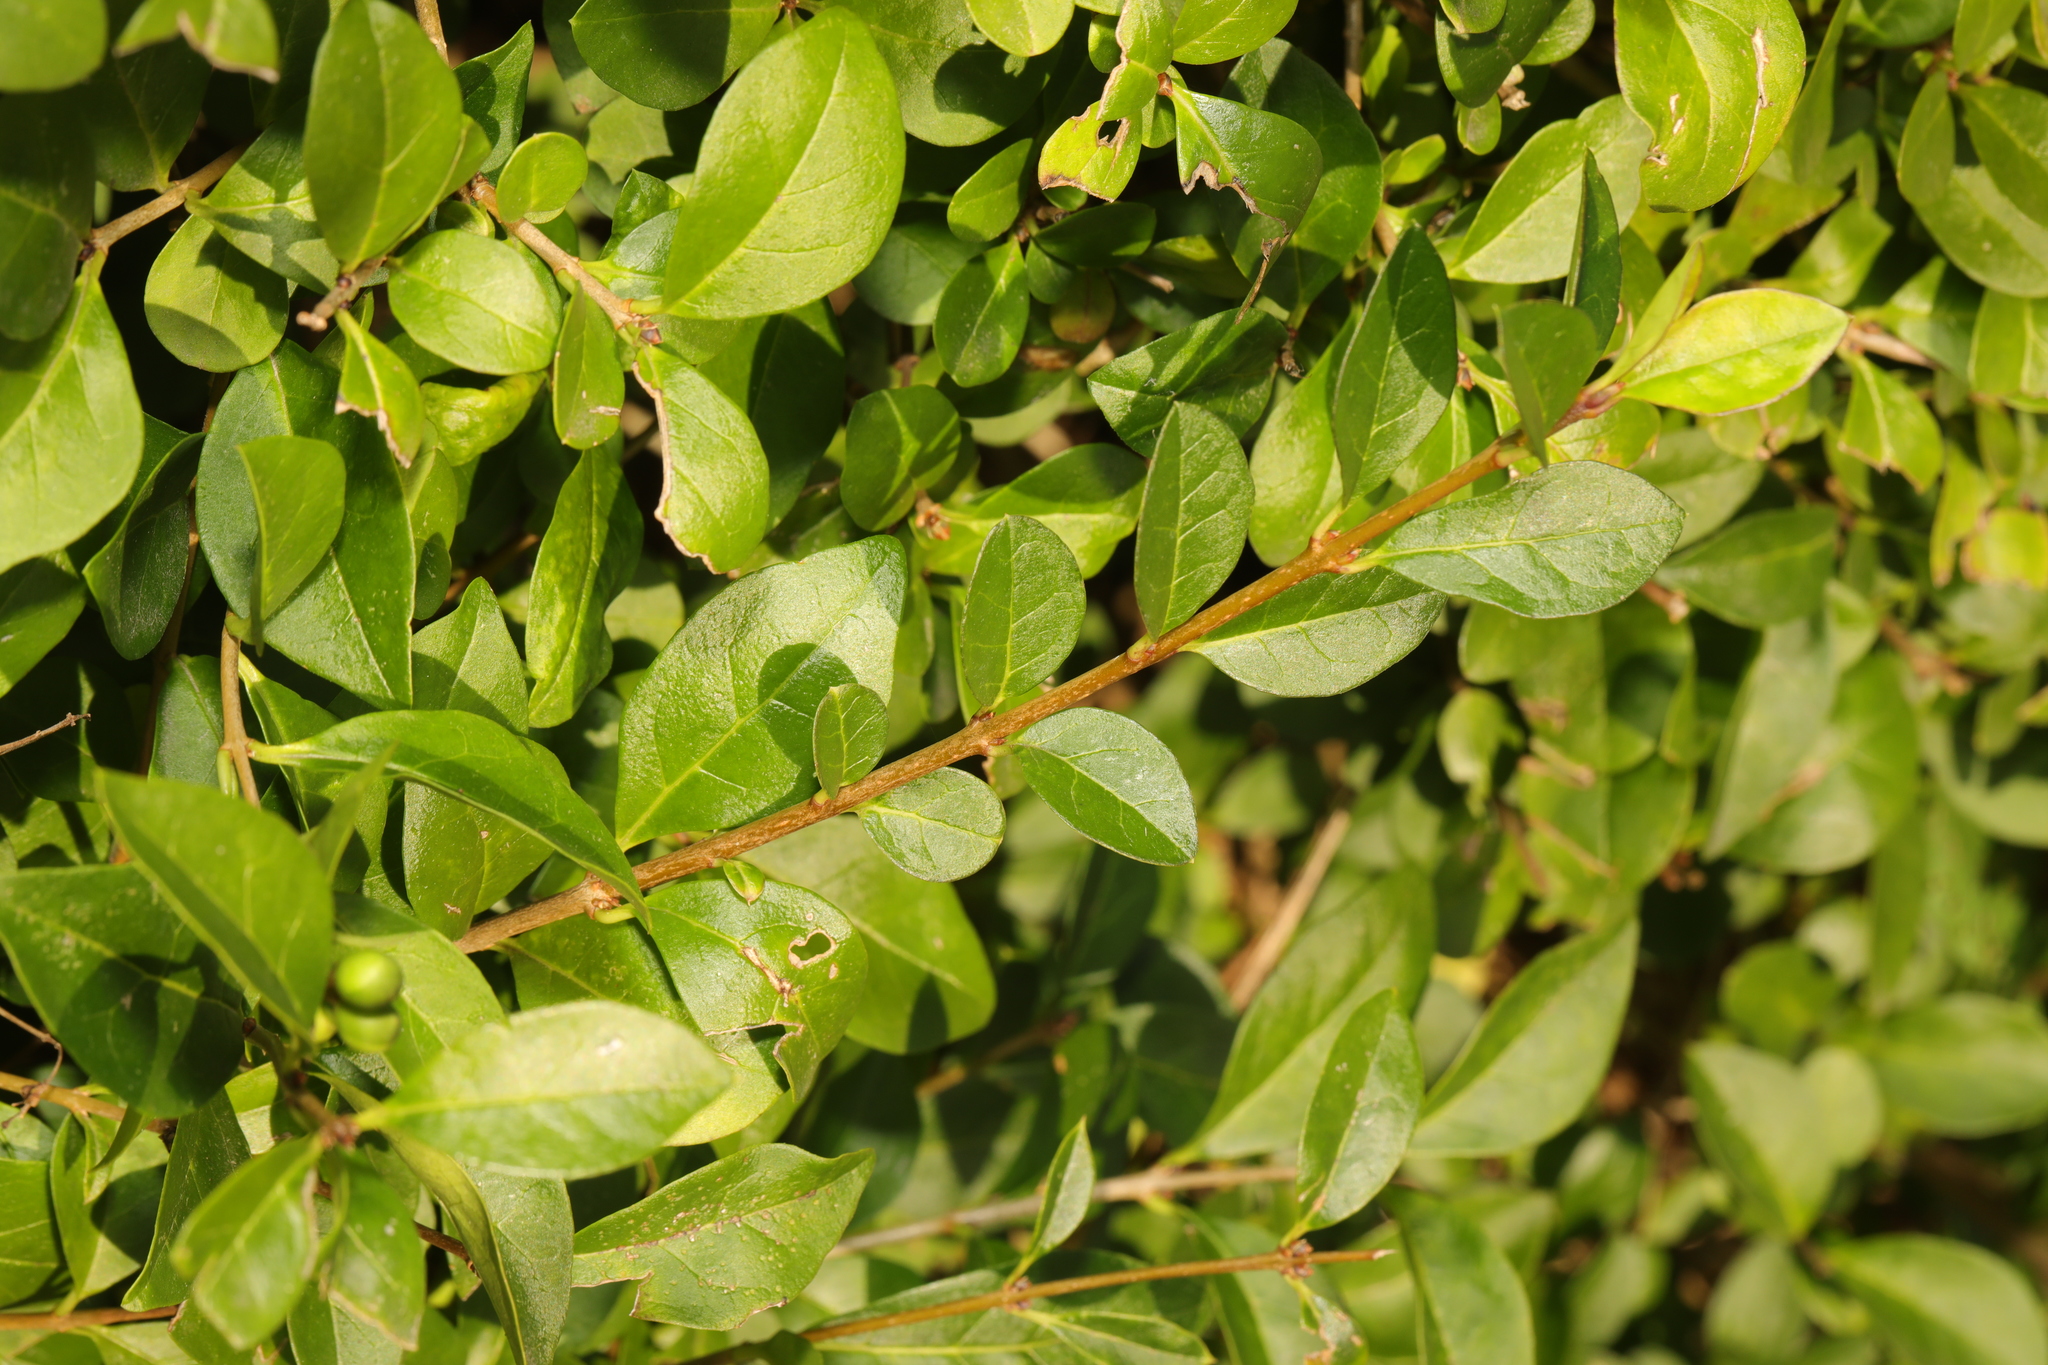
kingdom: Plantae
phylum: Tracheophyta
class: Magnoliopsida
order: Lamiales
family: Oleaceae
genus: Ligustrum
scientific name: Ligustrum ovalifolium
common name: California privet
